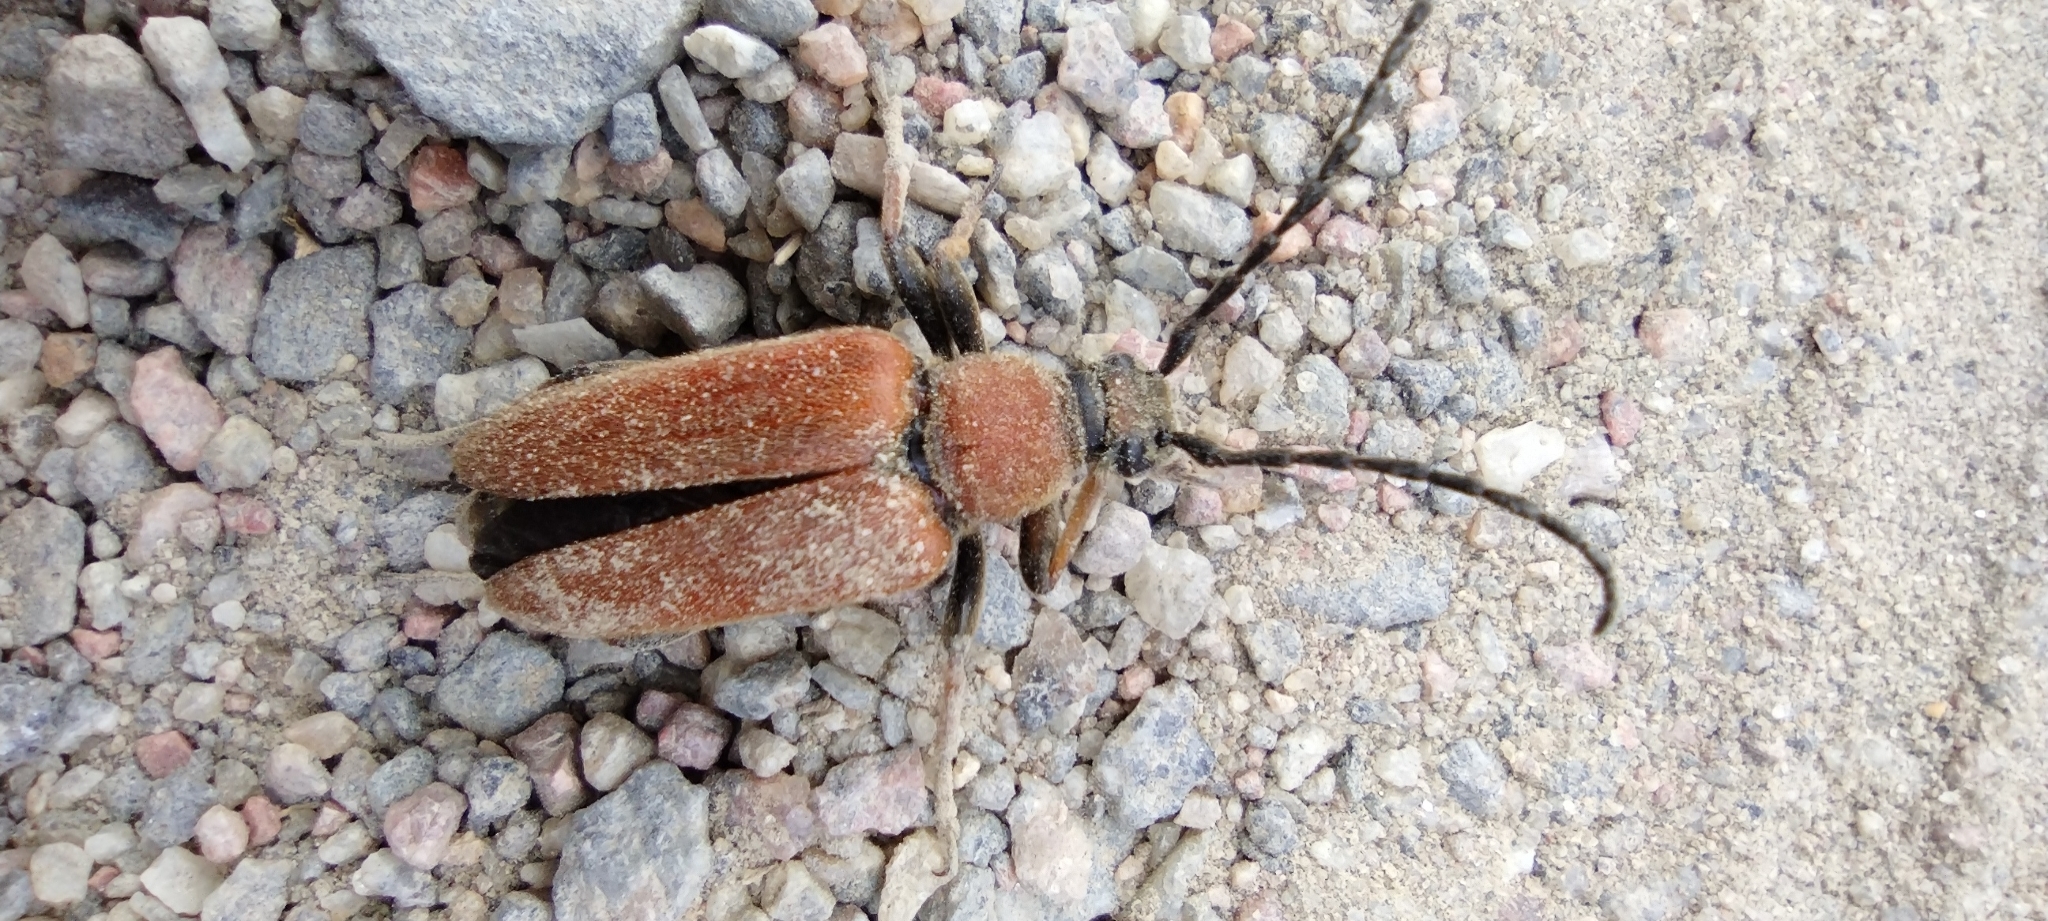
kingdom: Animalia
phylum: Arthropoda
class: Insecta
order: Coleoptera
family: Cerambycidae
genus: Stictoleptura
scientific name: Stictoleptura rubra
